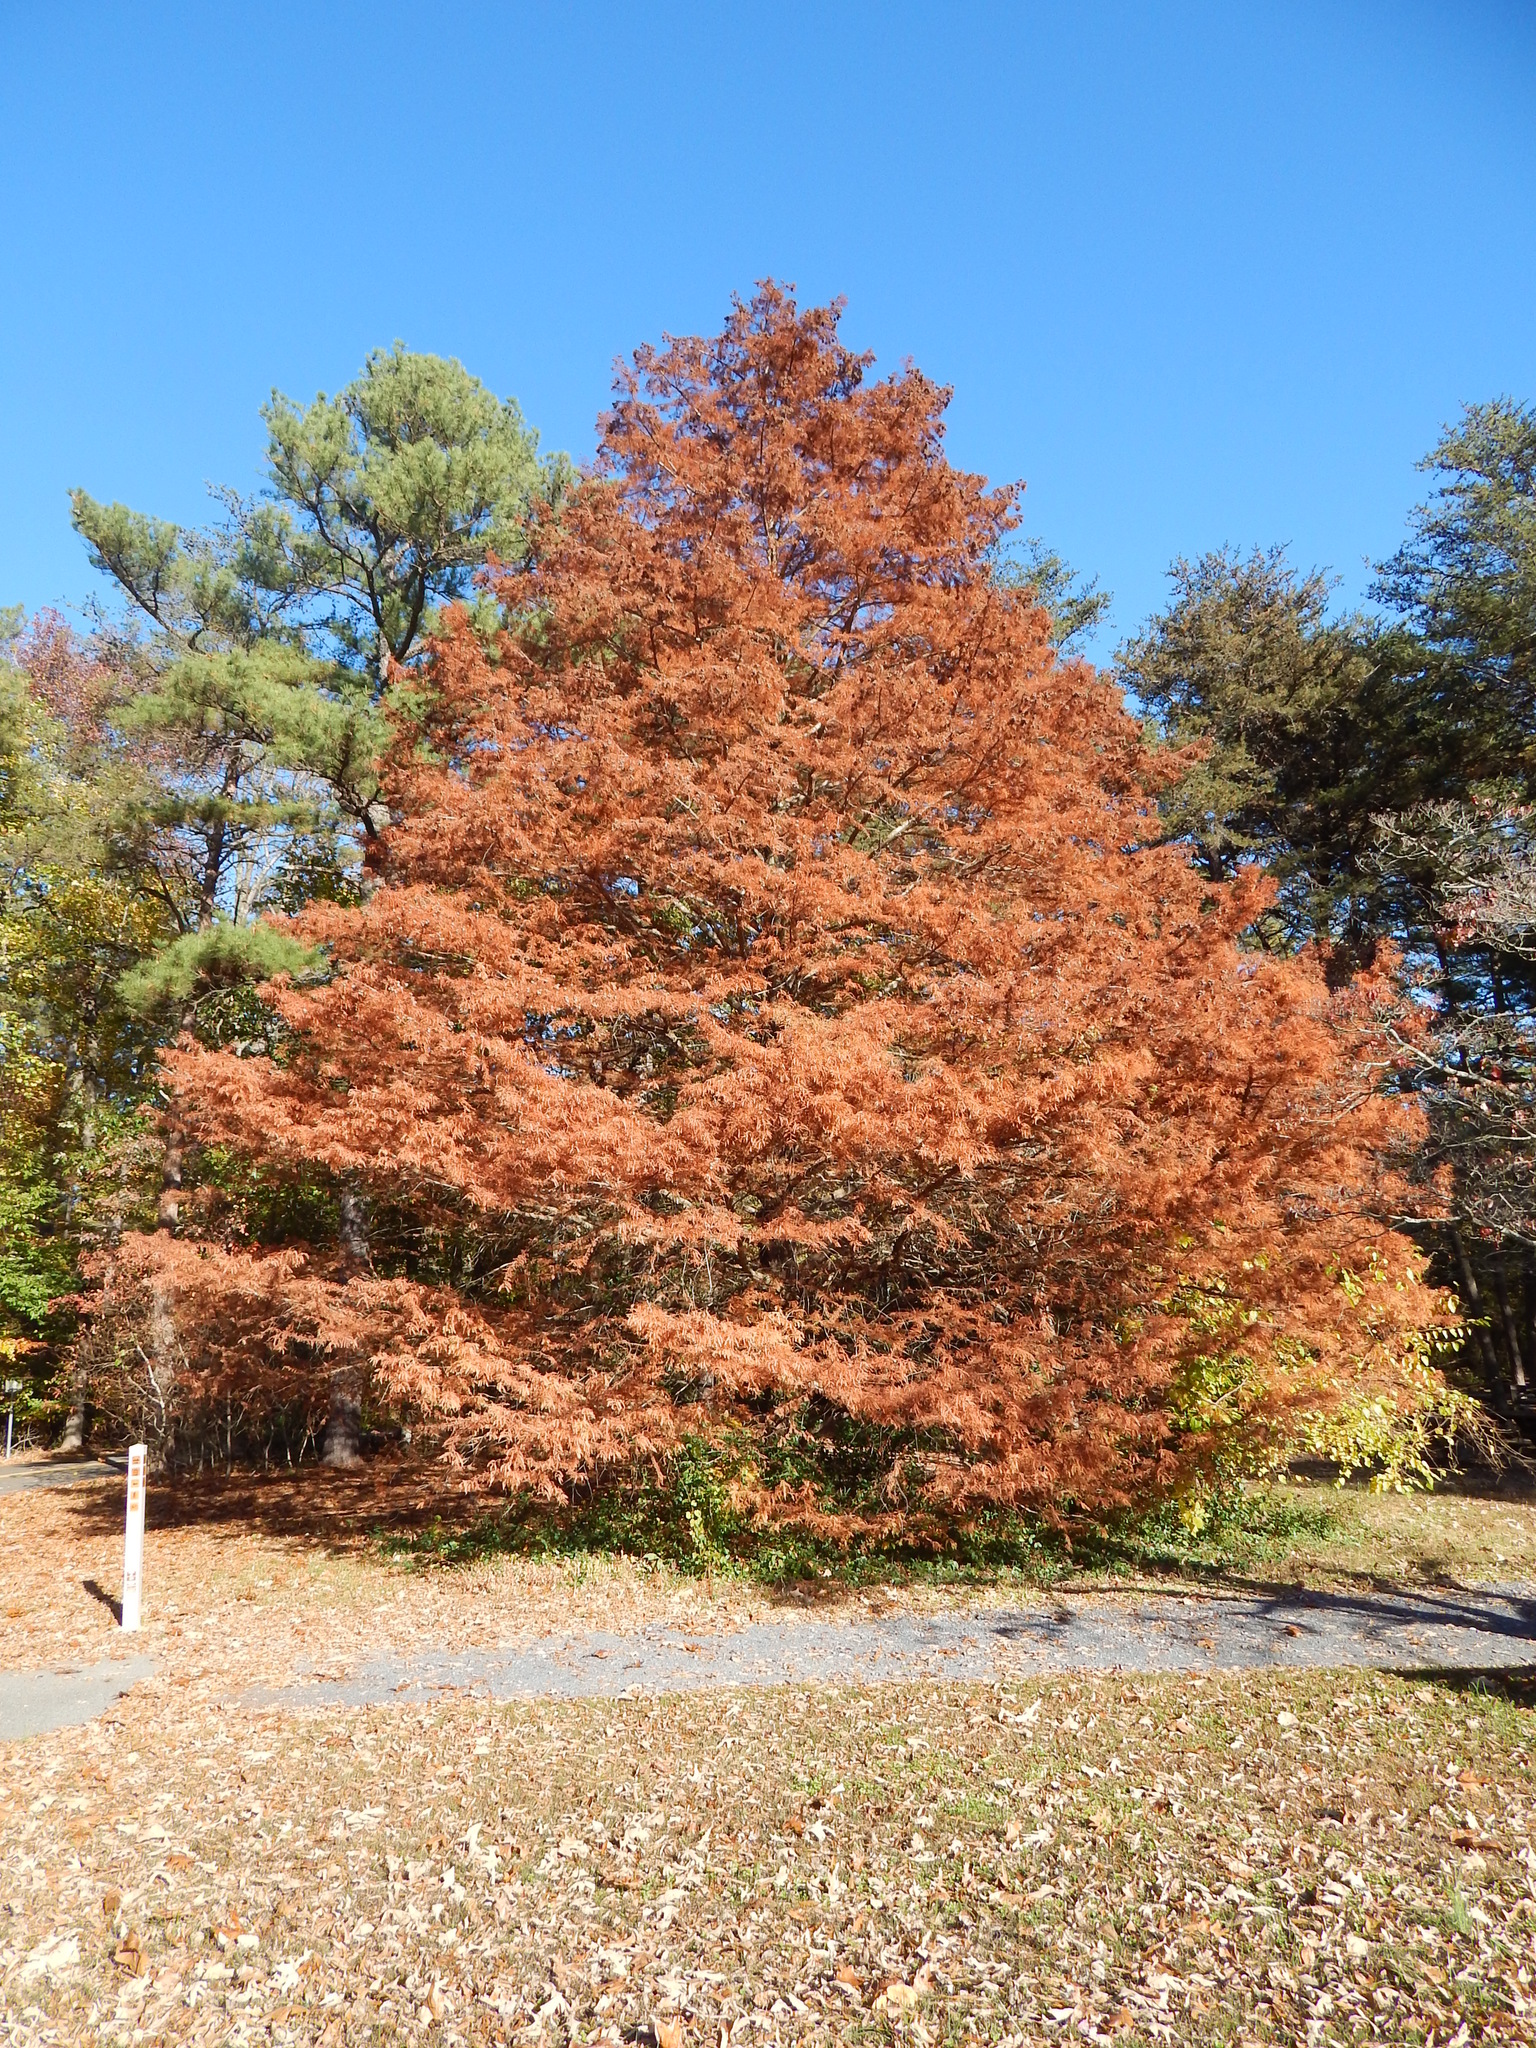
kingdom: Plantae
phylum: Tracheophyta
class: Pinopsida
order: Pinales
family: Cupressaceae
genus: Taxodium
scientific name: Taxodium distichum
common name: Bald cypress
